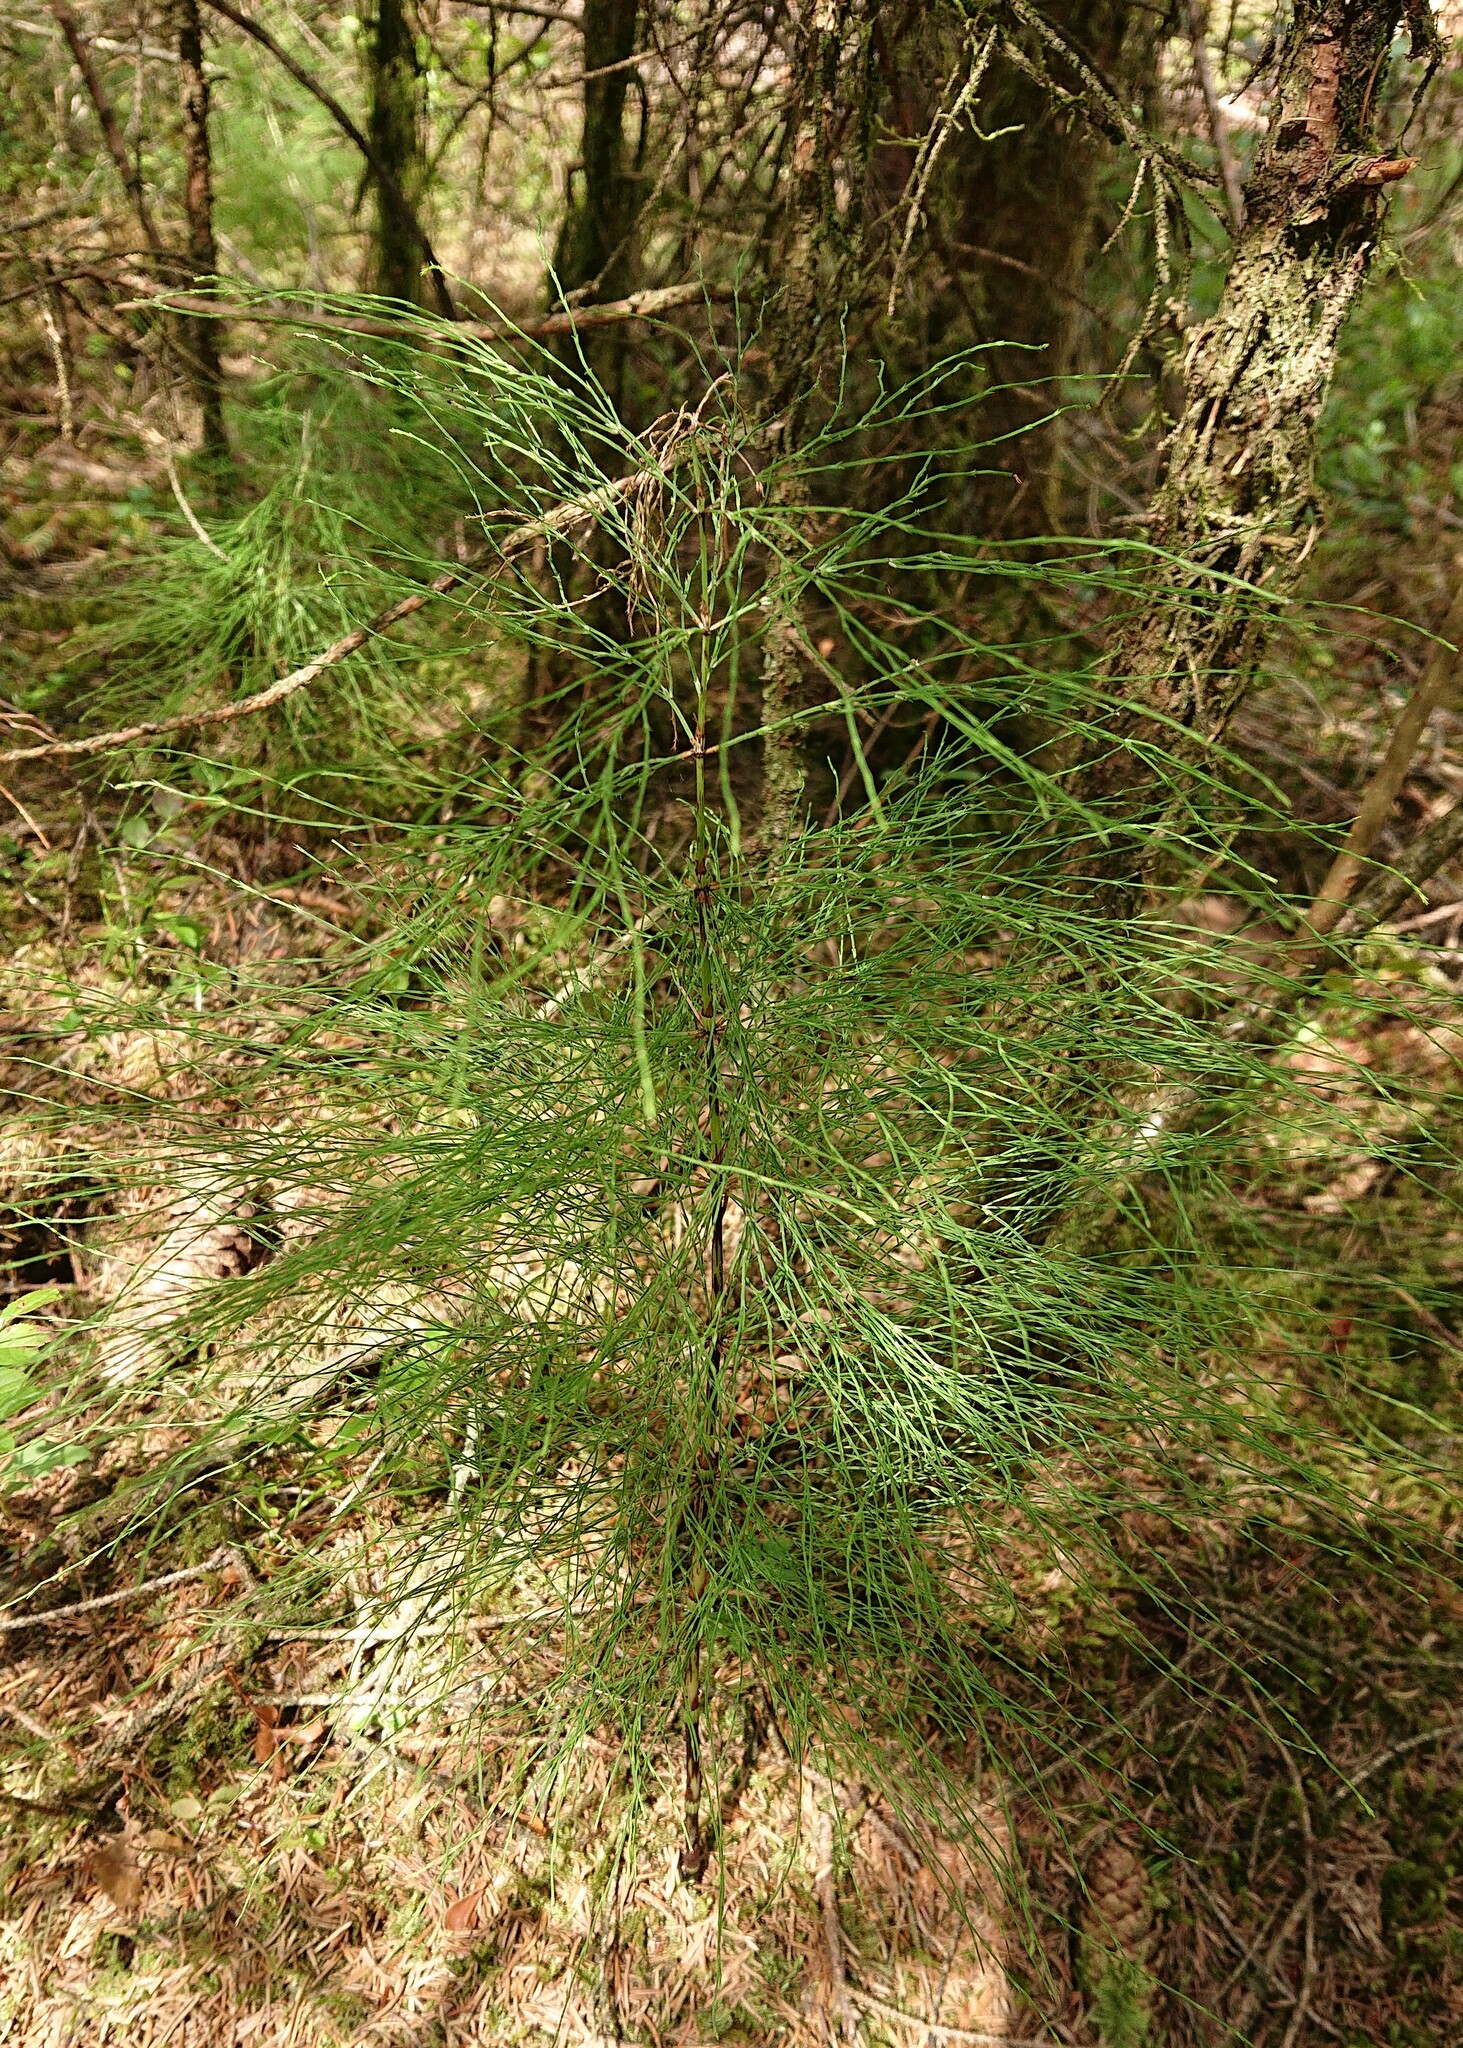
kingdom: Plantae
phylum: Tracheophyta
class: Polypodiopsida
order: Equisetales
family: Equisetaceae
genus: Equisetum
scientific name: Equisetum sylvaticum
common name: Wood horsetail
